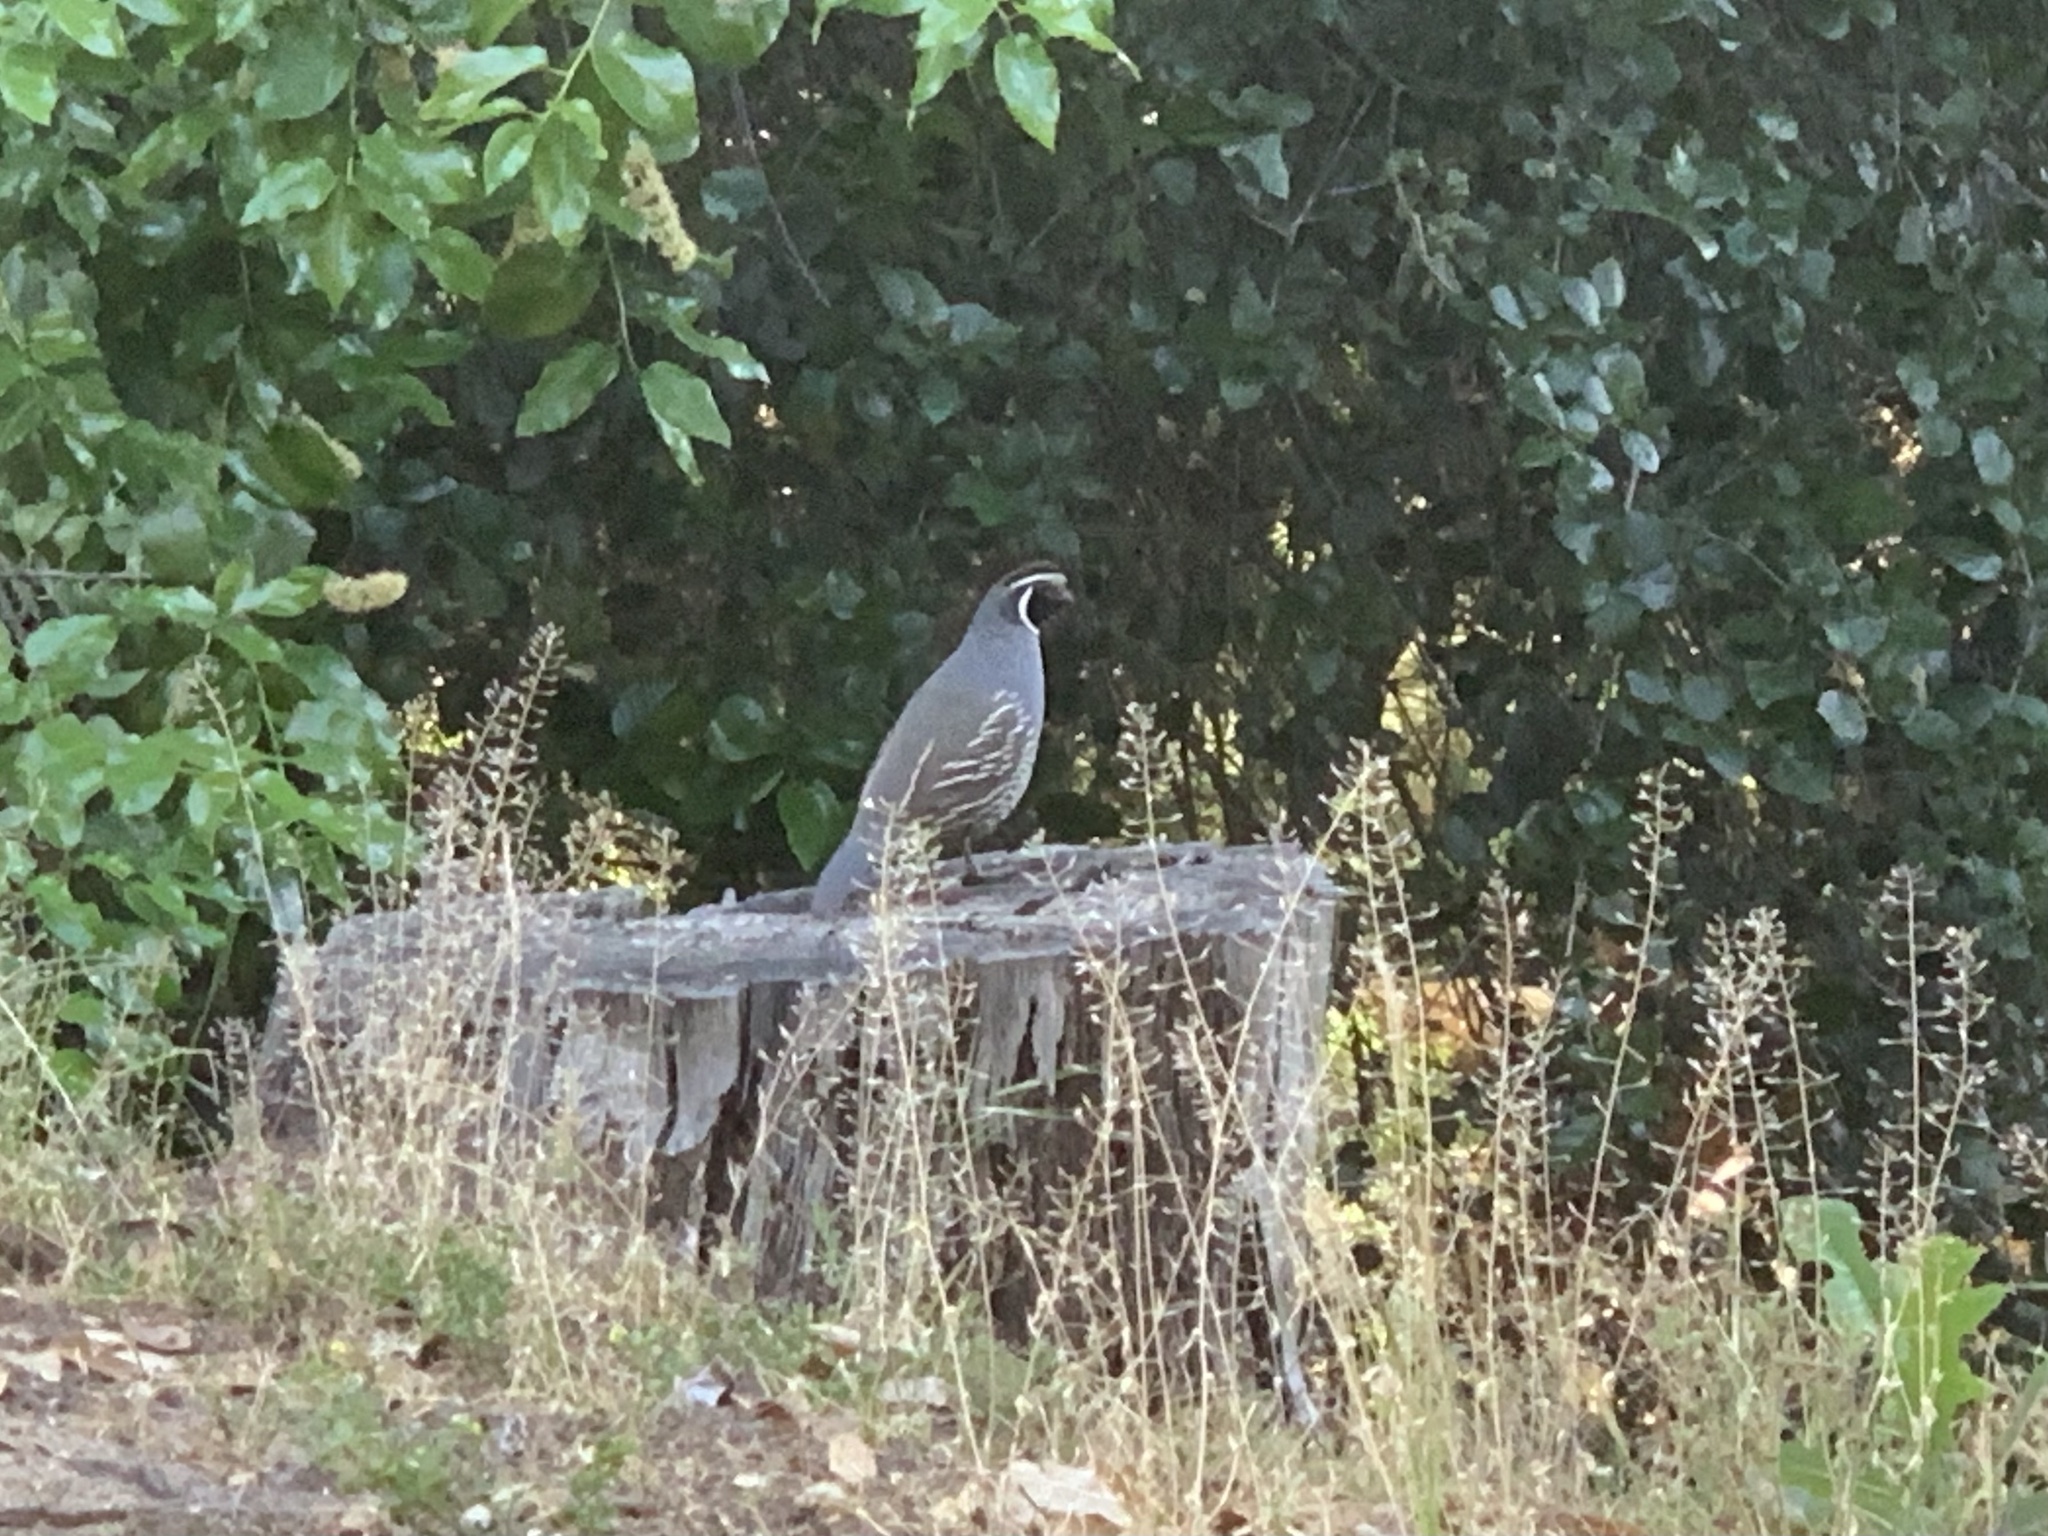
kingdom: Animalia
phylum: Chordata
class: Aves
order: Galliformes
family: Odontophoridae
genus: Callipepla
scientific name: Callipepla californica
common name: California quail
